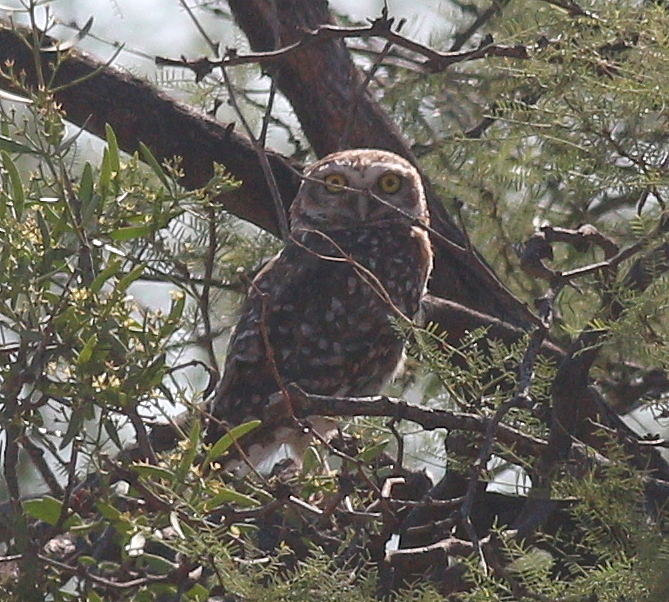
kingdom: Animalia
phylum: Chordata
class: Aves
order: Strigiformes
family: Strigidae
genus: Athene
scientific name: Athene cunicularia
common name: Burrowing owl
